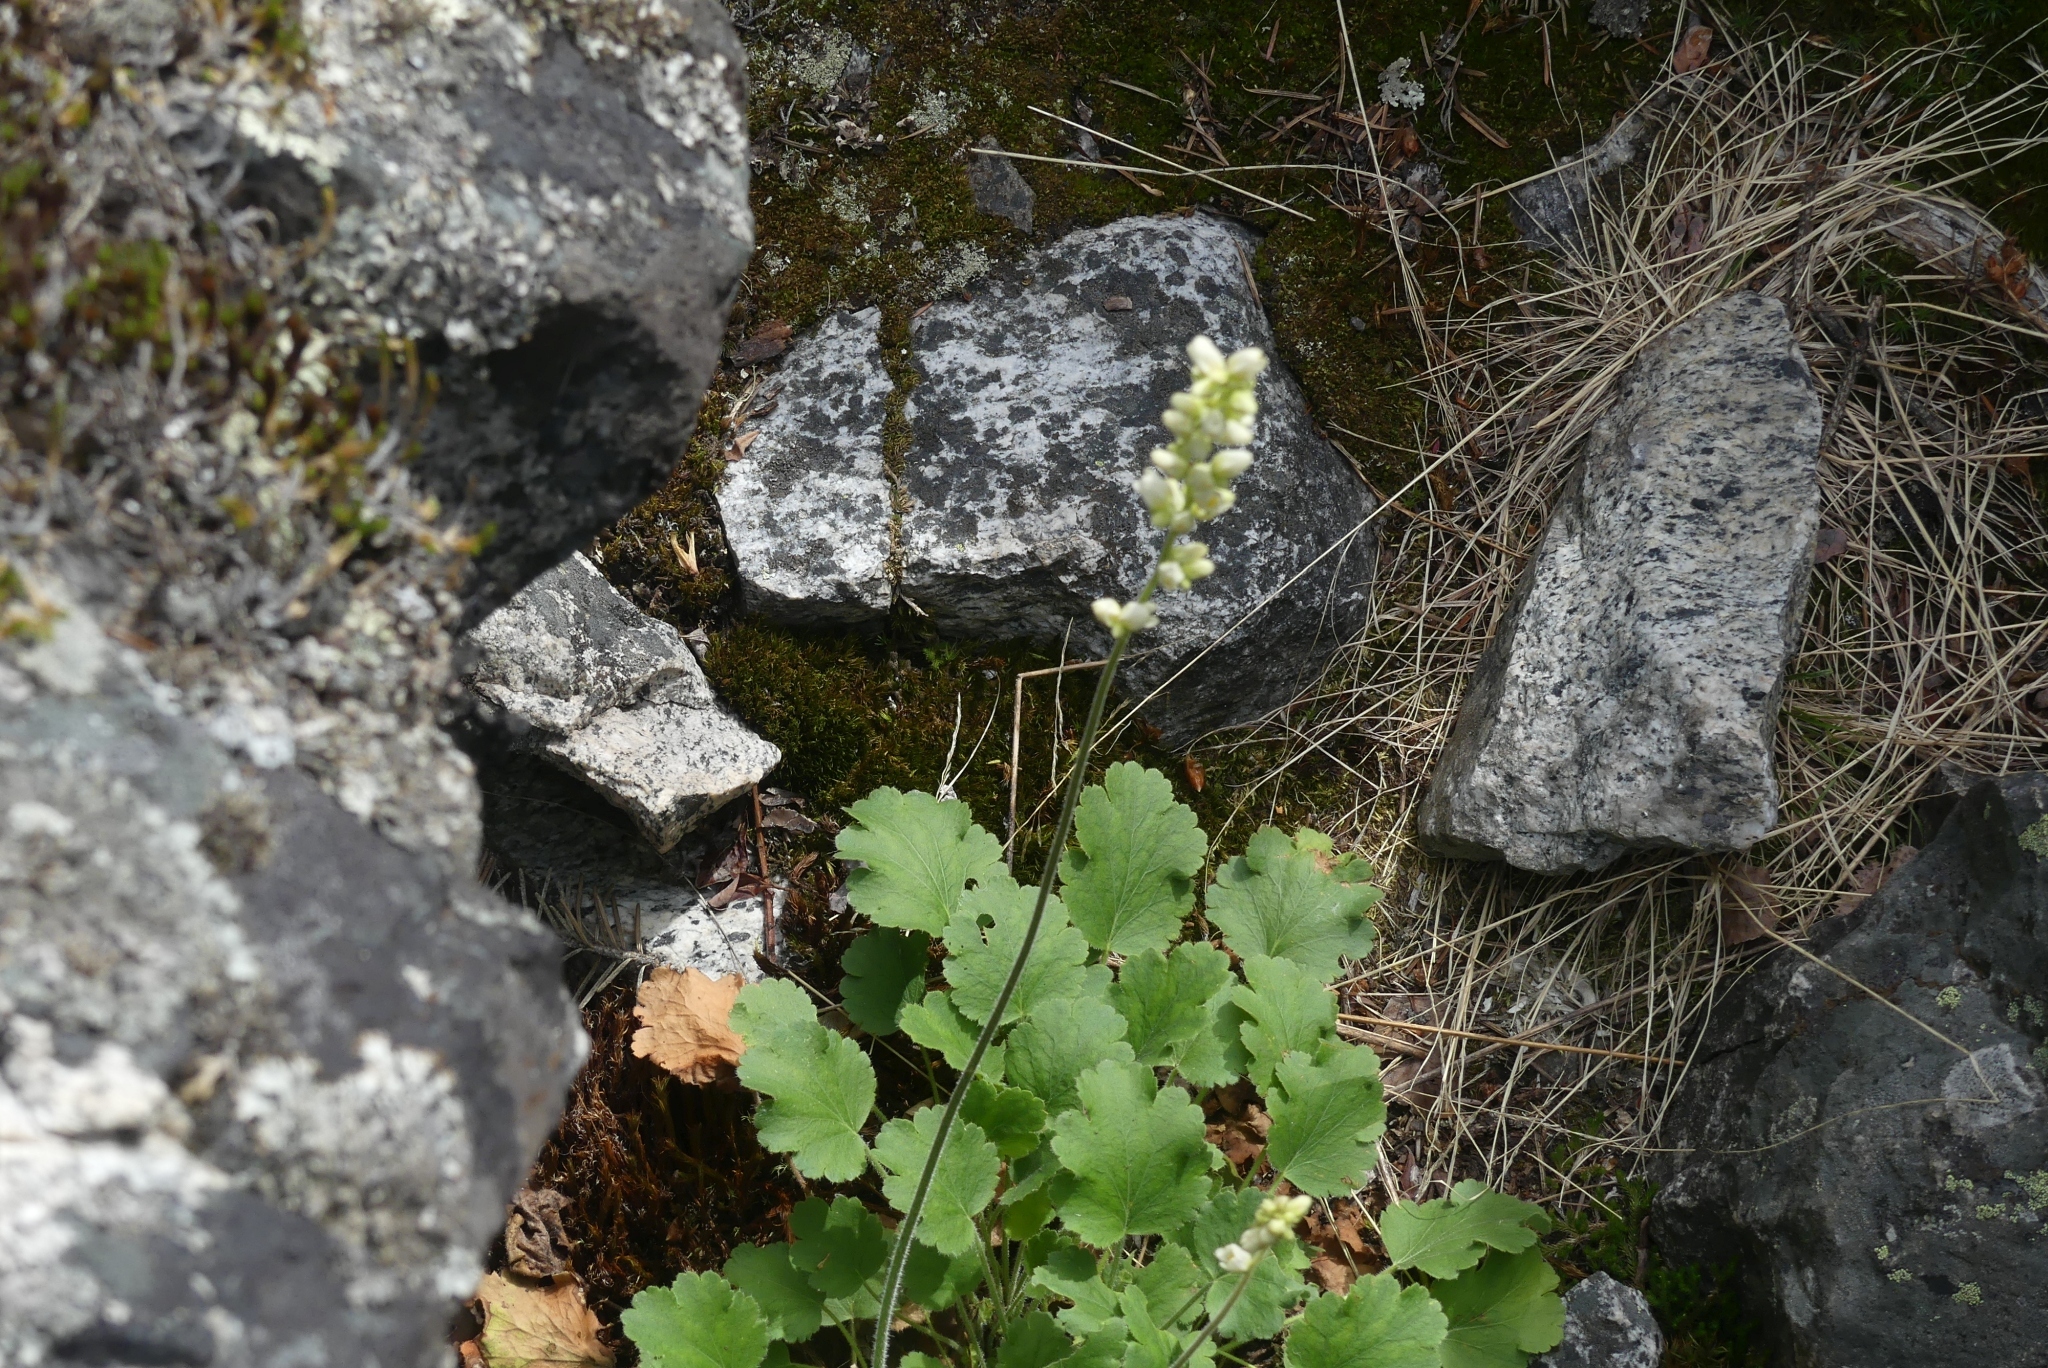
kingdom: Plantae
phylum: Tracheophyta
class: Magnoliopsida
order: Saxifragales
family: Saxifragaceae
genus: Heuchera
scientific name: Heuchera cylindrica
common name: Mat alumroot
